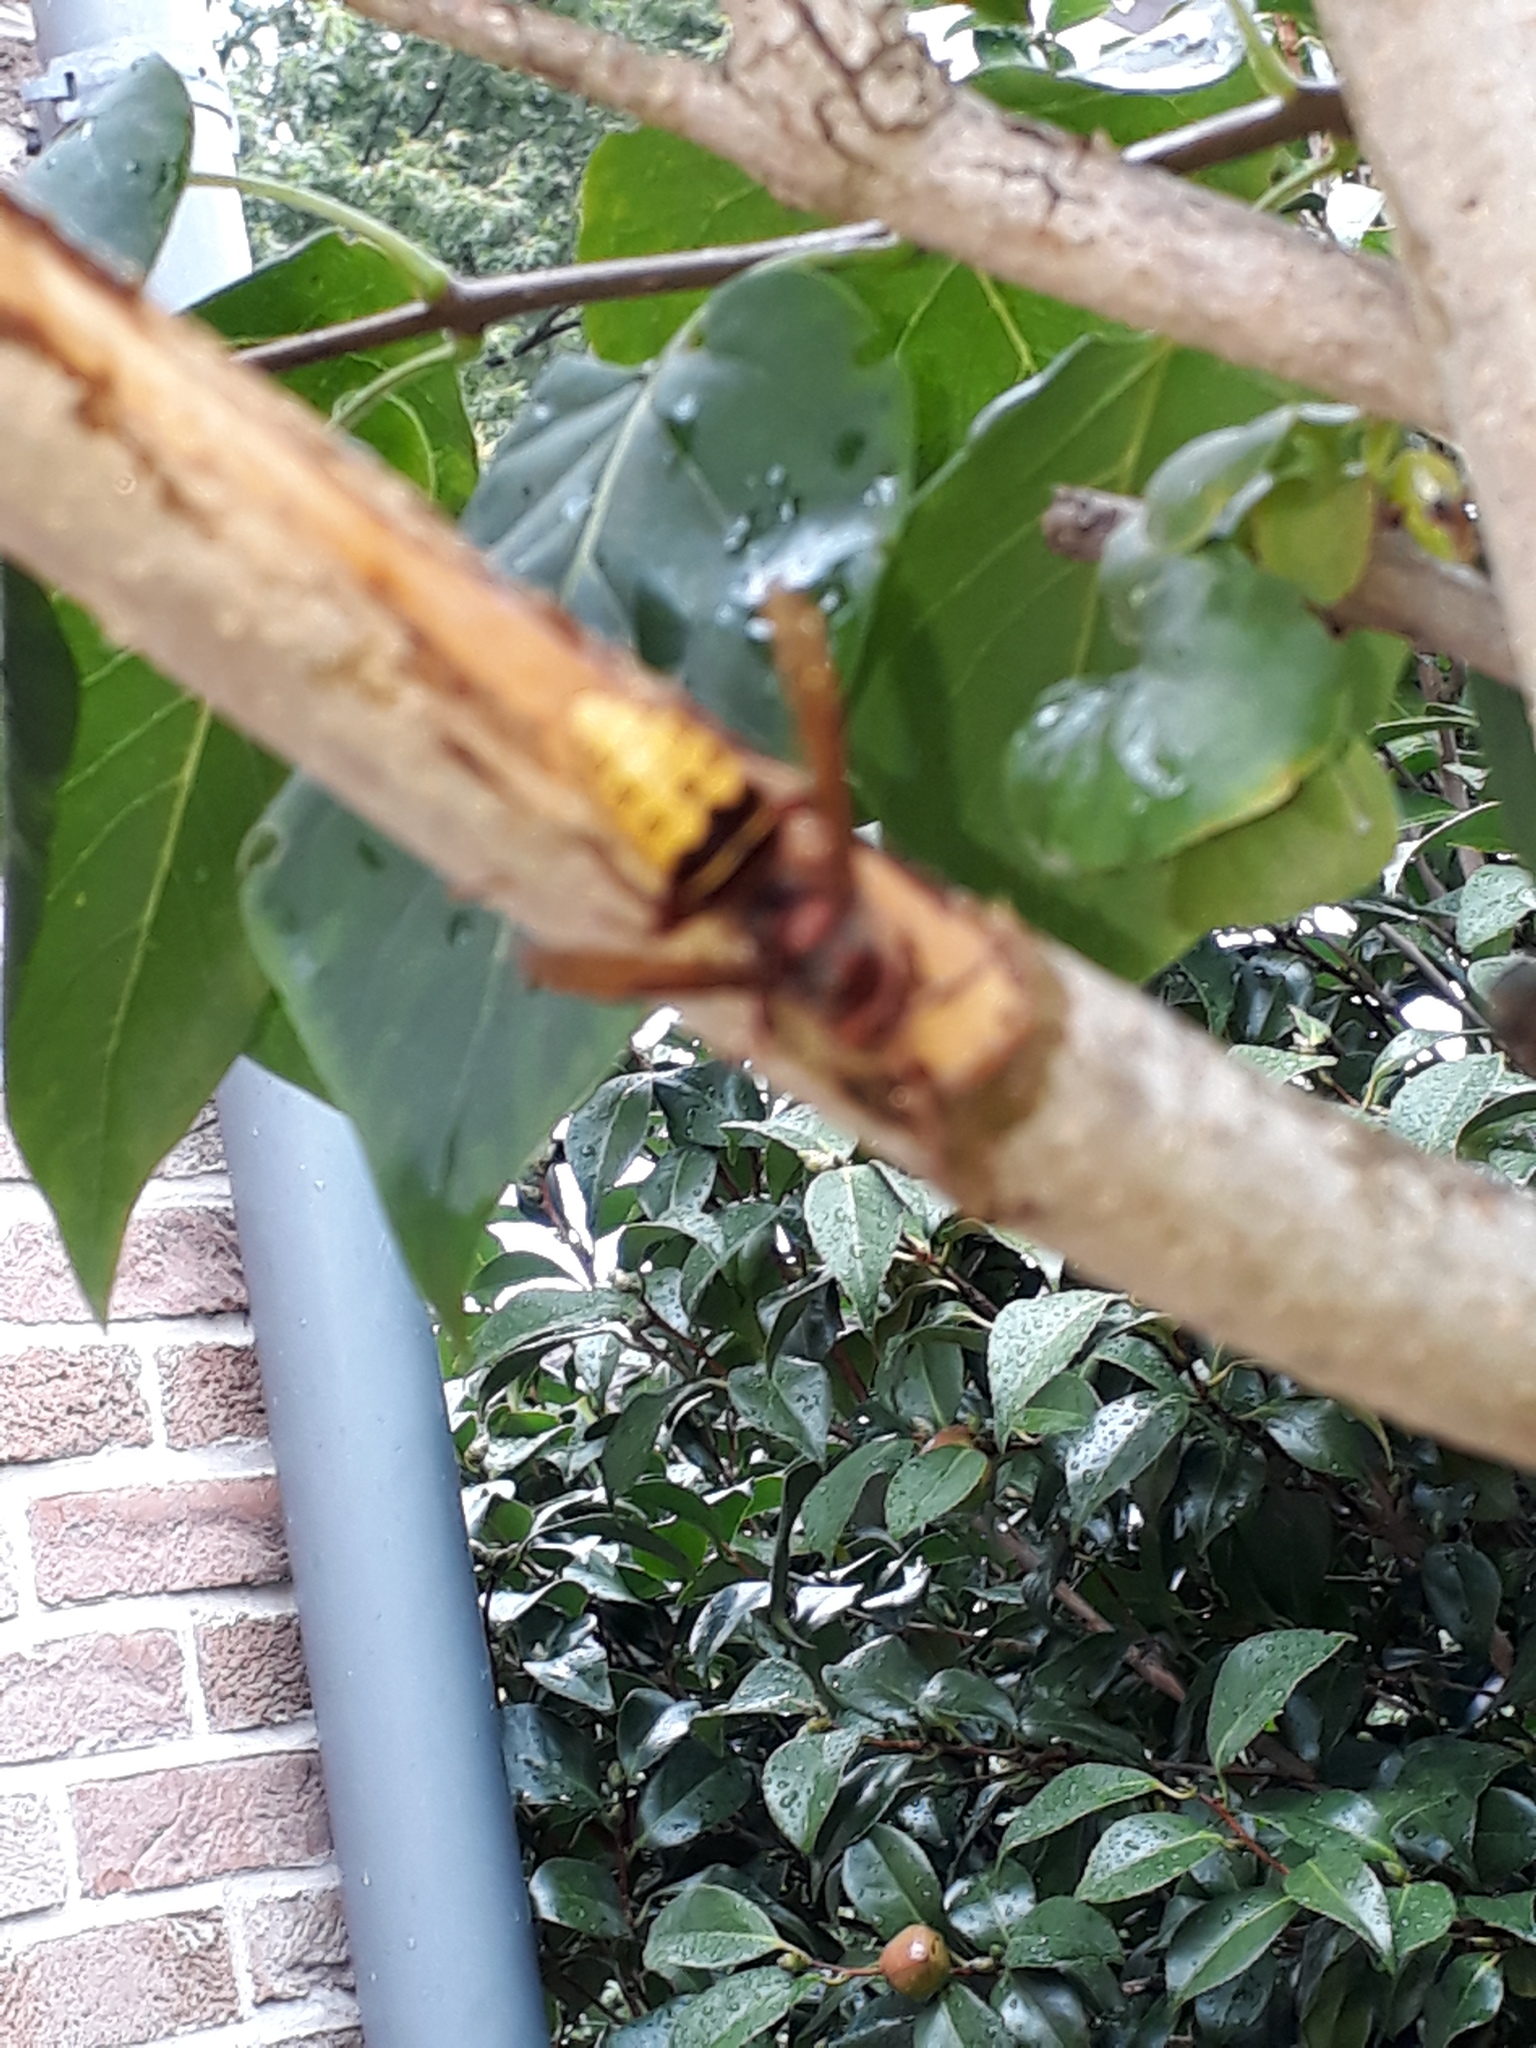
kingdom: Animalia
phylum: Arthropoda
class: Insecta
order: Hymenoptera
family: Vespidae
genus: Vespa
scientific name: Vespa crabro
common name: Hornet
